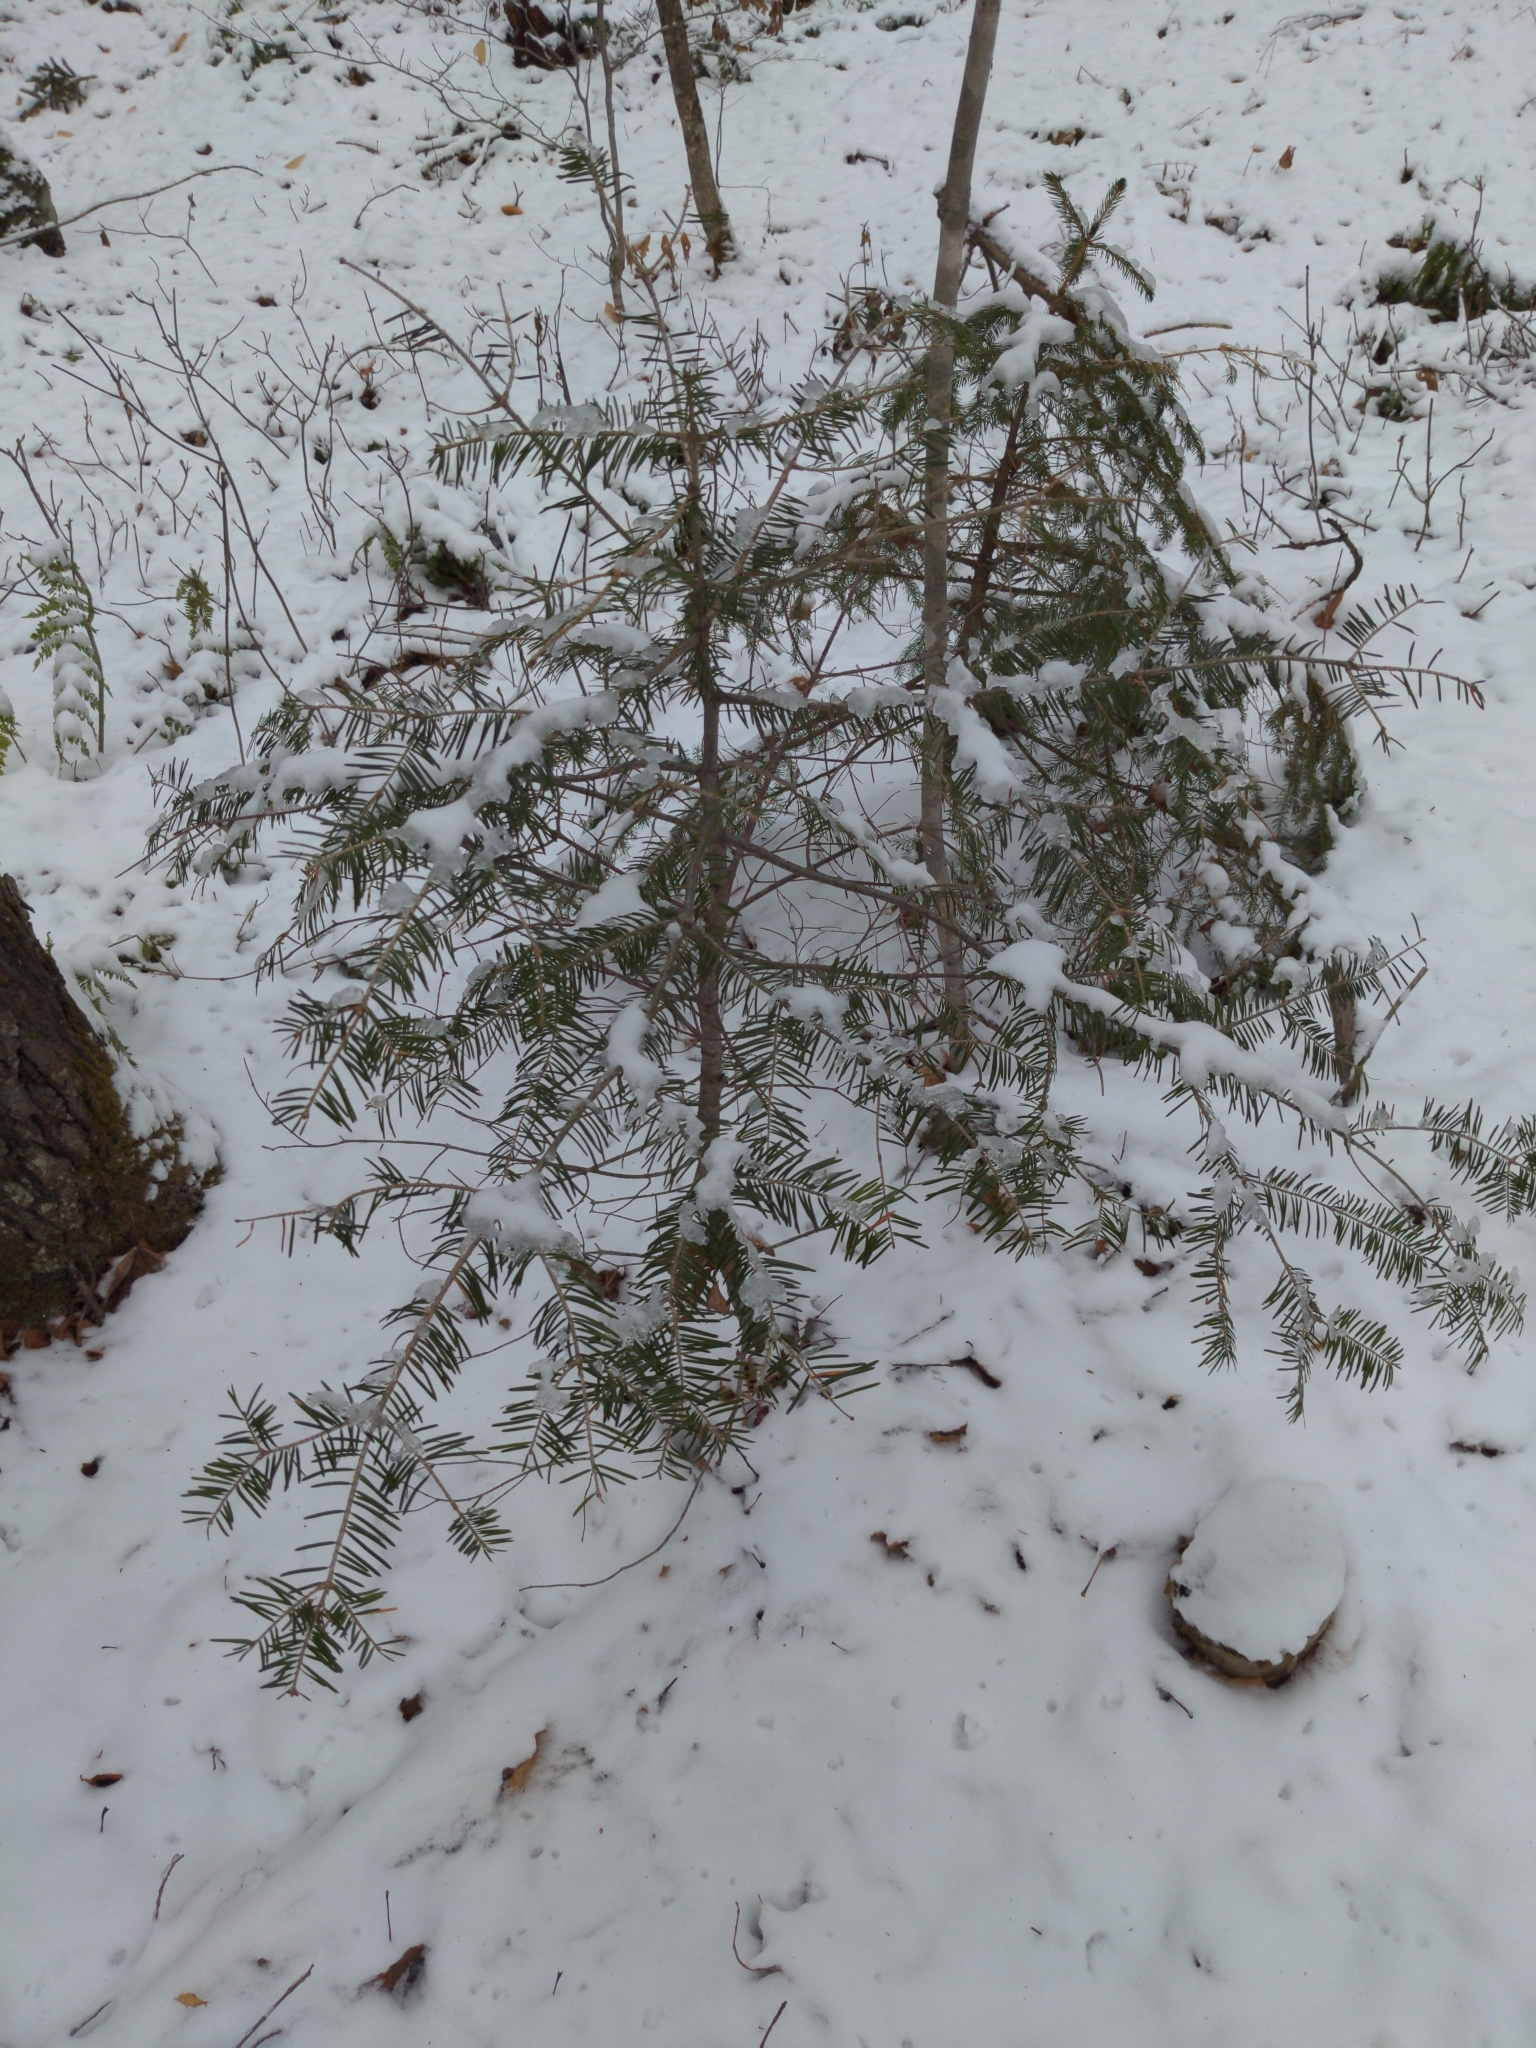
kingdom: Plantae
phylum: Tracheophyta
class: Pinopsida
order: Pinales
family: Pinaceae
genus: Abies
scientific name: Abies balsamea
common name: Balsam fir
